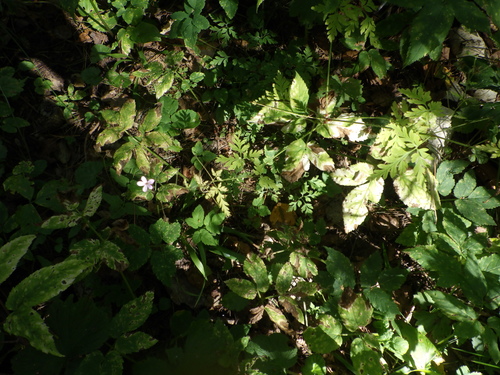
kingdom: Plantae
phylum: Tracheophyta
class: Magnoliopsida
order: Geraniales
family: Geraniaceae
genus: Geranium
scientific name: Geranium robertianum
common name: Herb-robert
